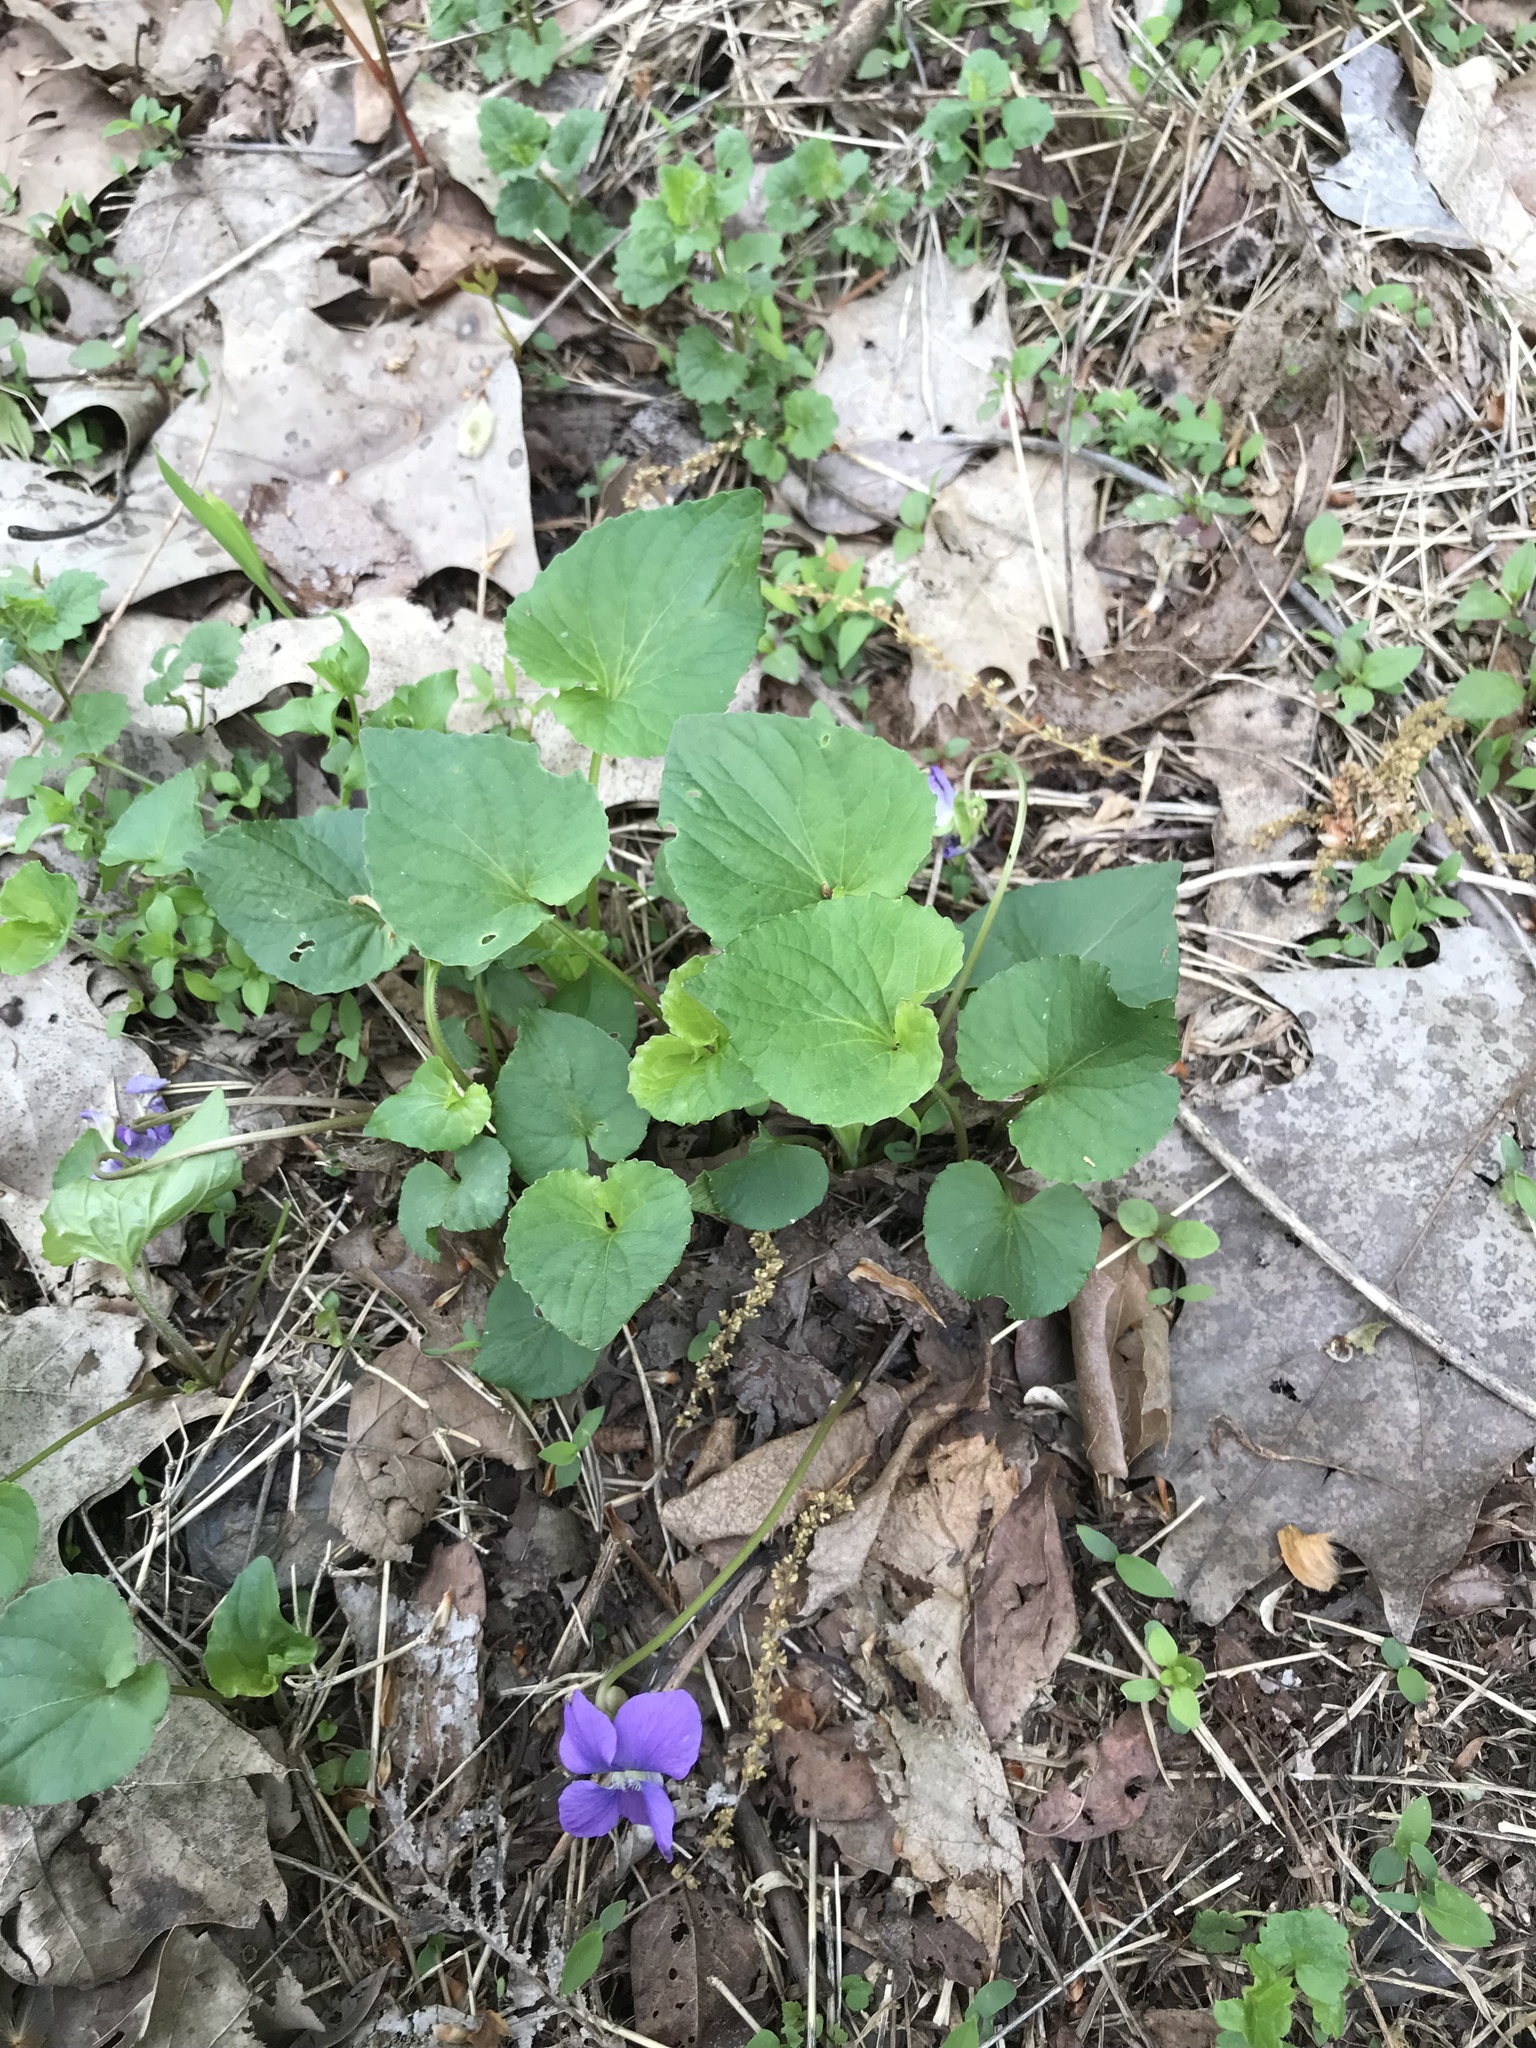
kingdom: Plantae
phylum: Tracheophyta
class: Magnoliopsida
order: Malpighiales
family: Violaceae
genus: Viola
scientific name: Viola sororia
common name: Dooryard violet
